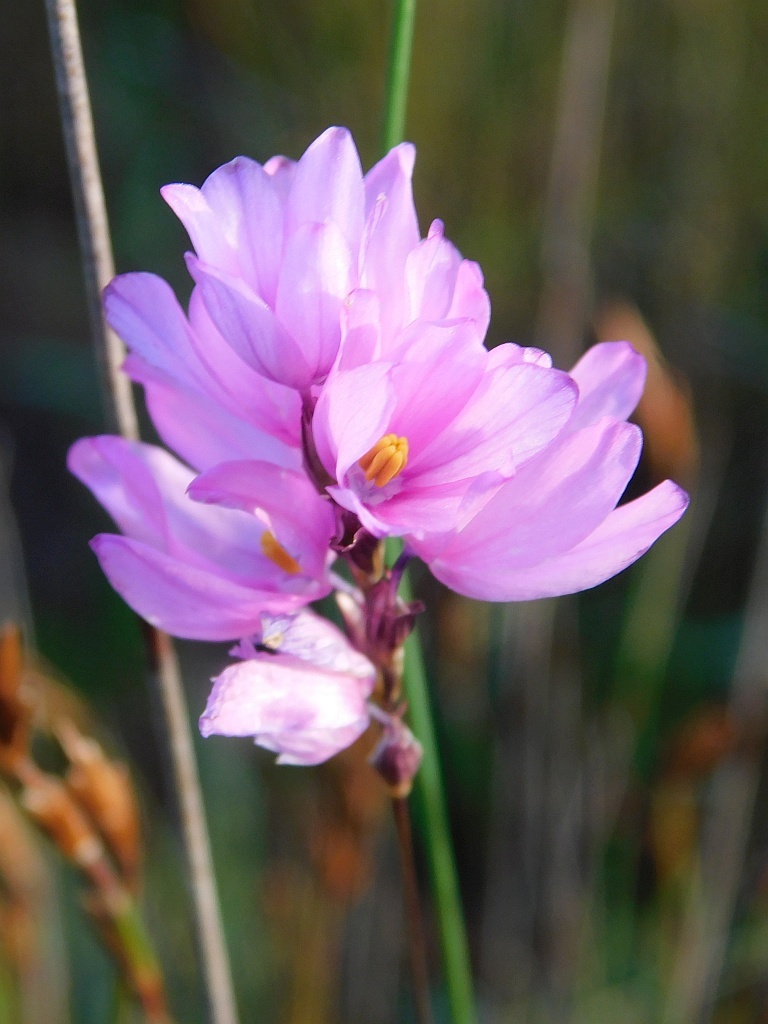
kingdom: Plantae
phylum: Tracheophyta
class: Liliopsida
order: Asparagales
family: Iridaceae
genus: Ixia
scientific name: Ixia micrandra
